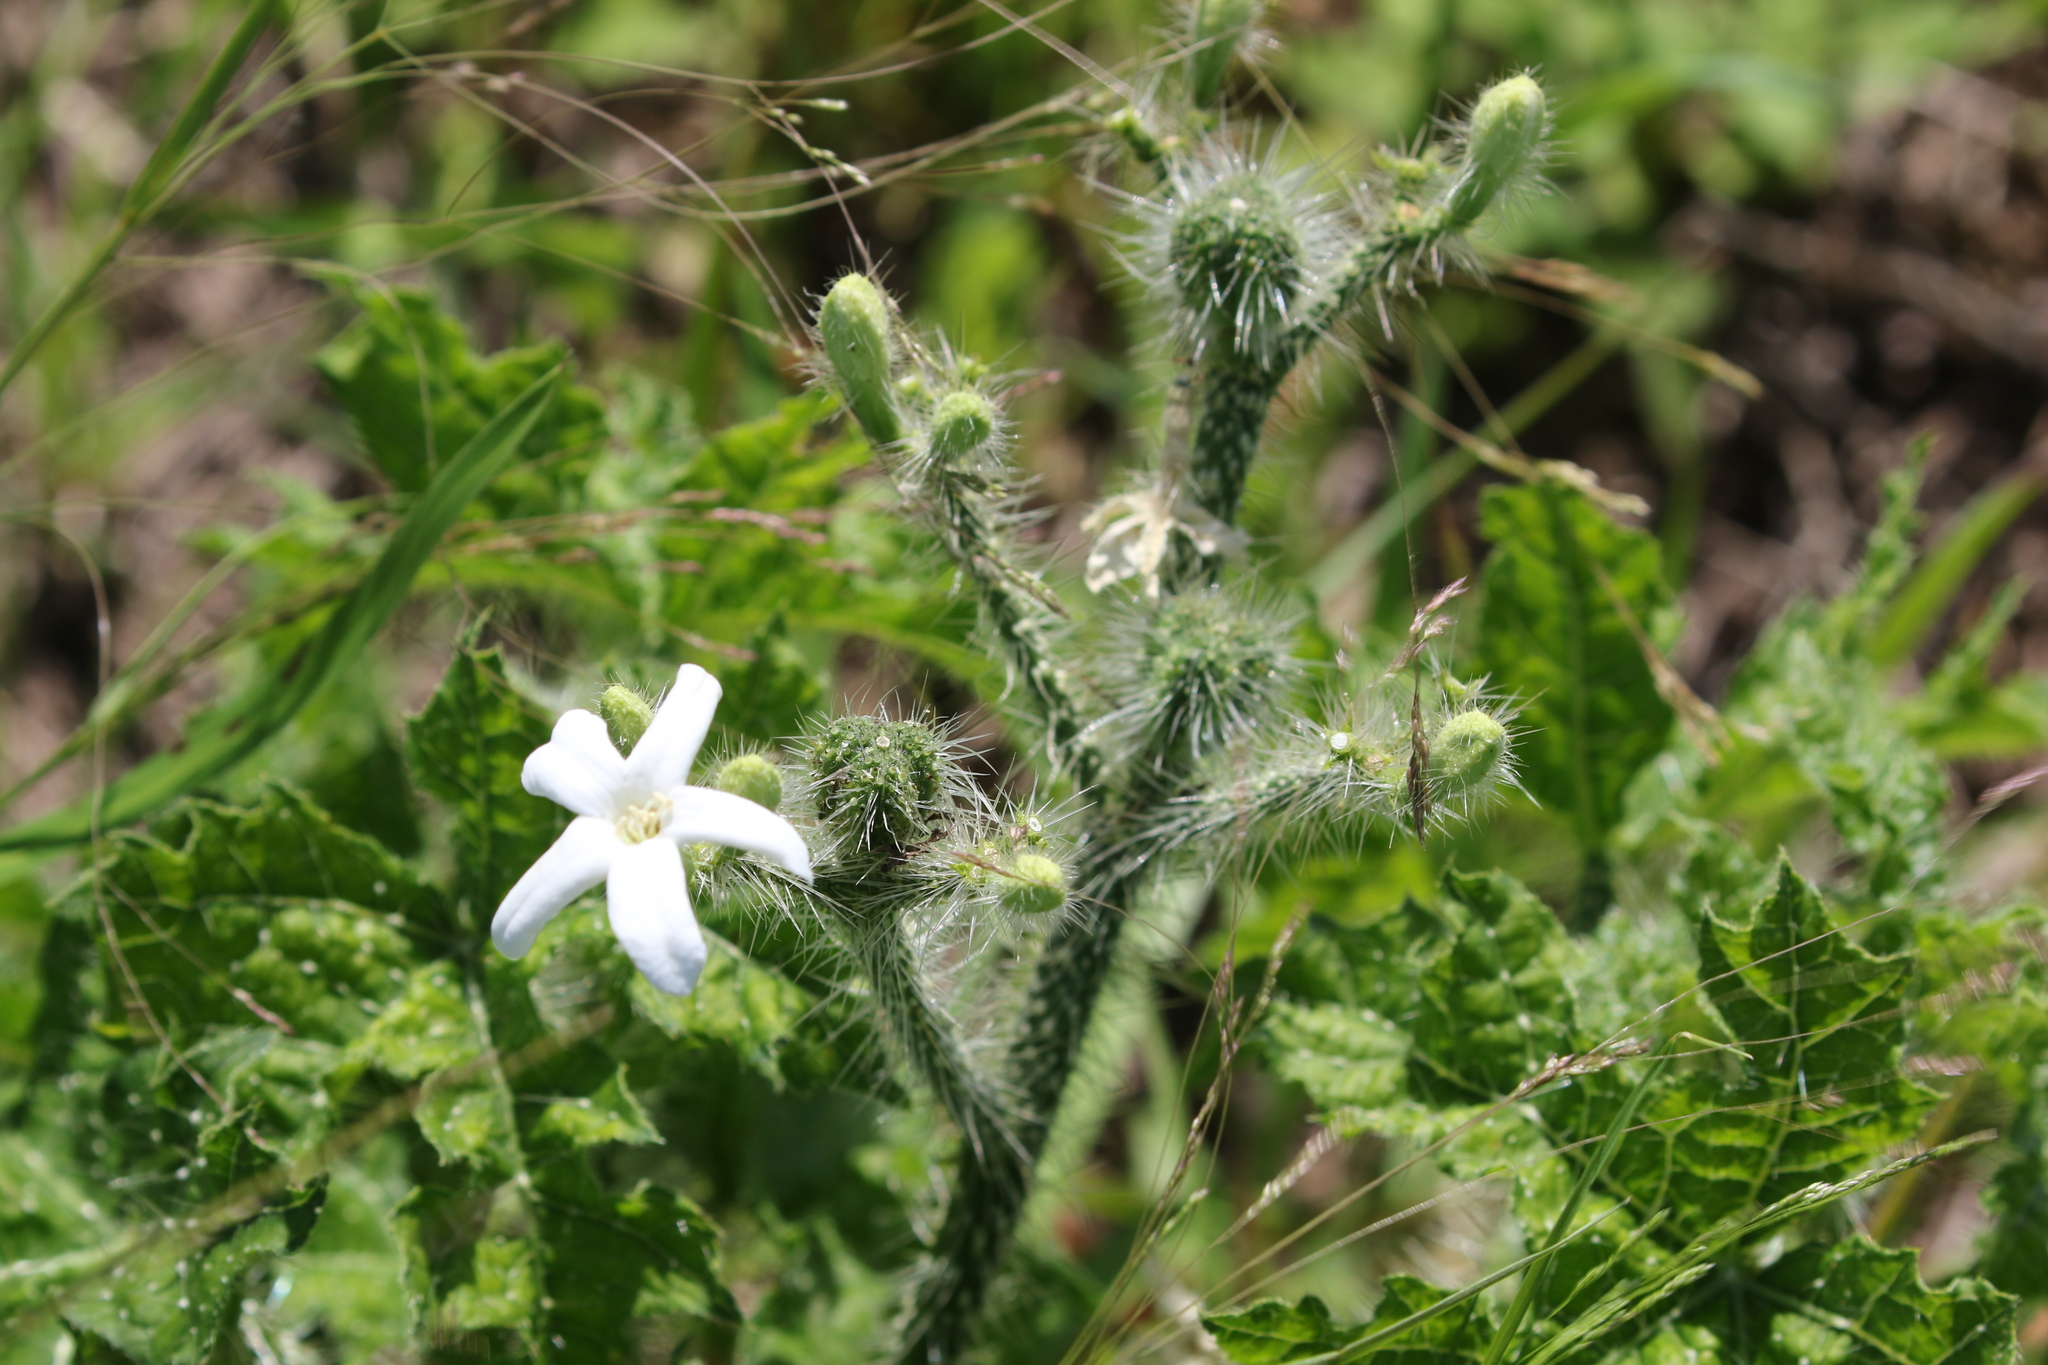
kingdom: Plantae
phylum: Tracheophyta
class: Magnoliopsida
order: Malpighiales
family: Euphorbiaceae
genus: Cnidoscolus
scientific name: Cnidoscolus texanus
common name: Texas bull-nettle
